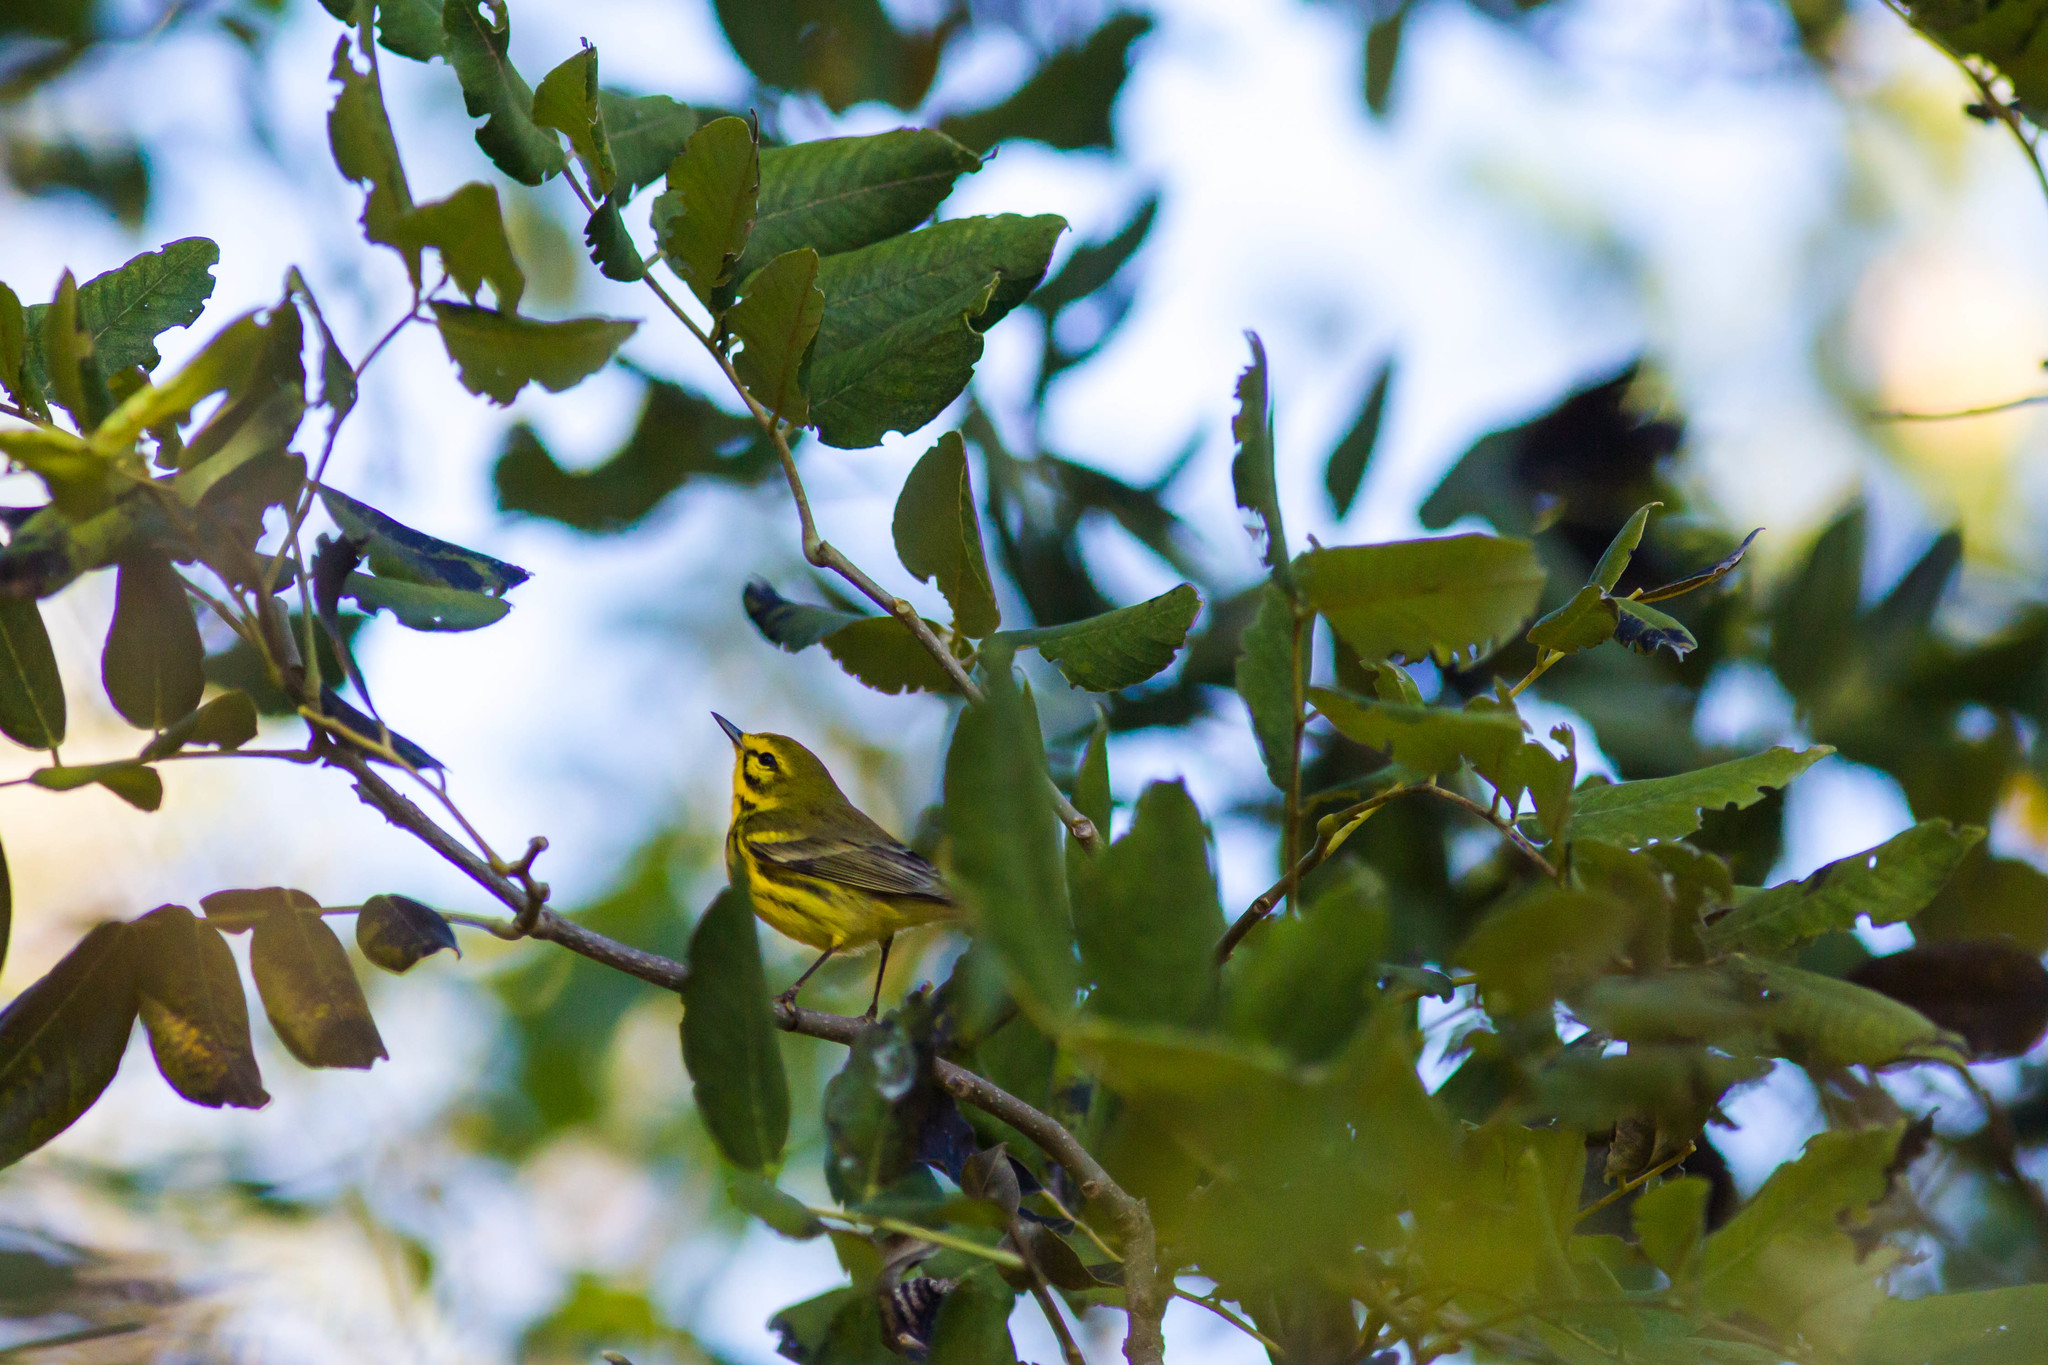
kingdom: Animalia
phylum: Chordata
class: Aves
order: Passeriformes
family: Parulidae
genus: Setophaga
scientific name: Setophaga discolor
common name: Prairie warbler
